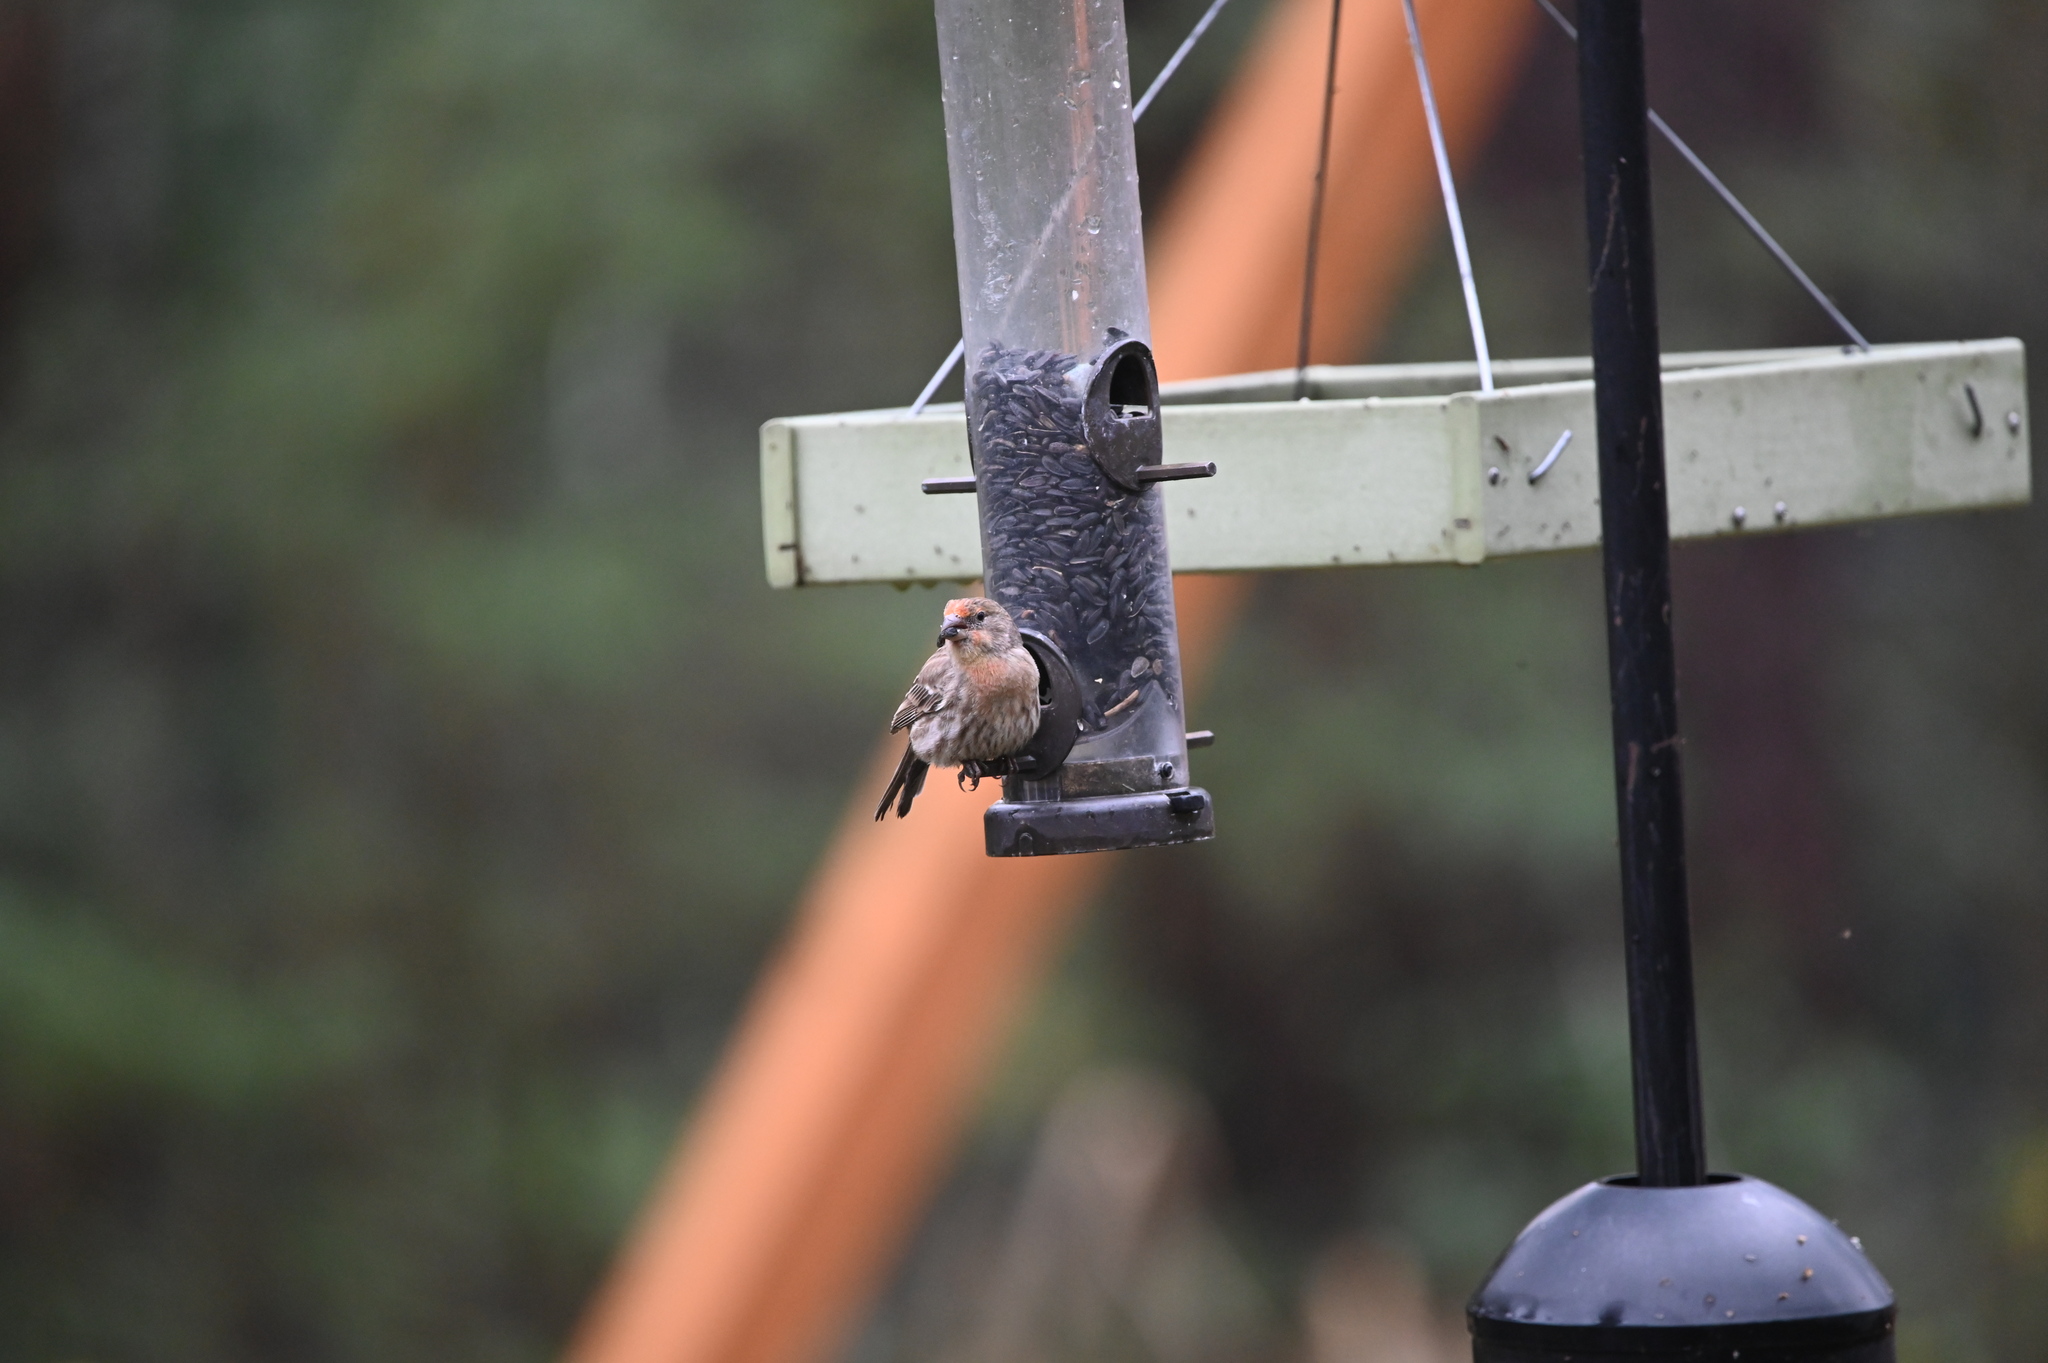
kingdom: Animalia
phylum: Chordata
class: Aves
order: Passeriformes
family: Fringillidae
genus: Haemorhous
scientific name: Haemorhous mexicanus
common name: House finch
